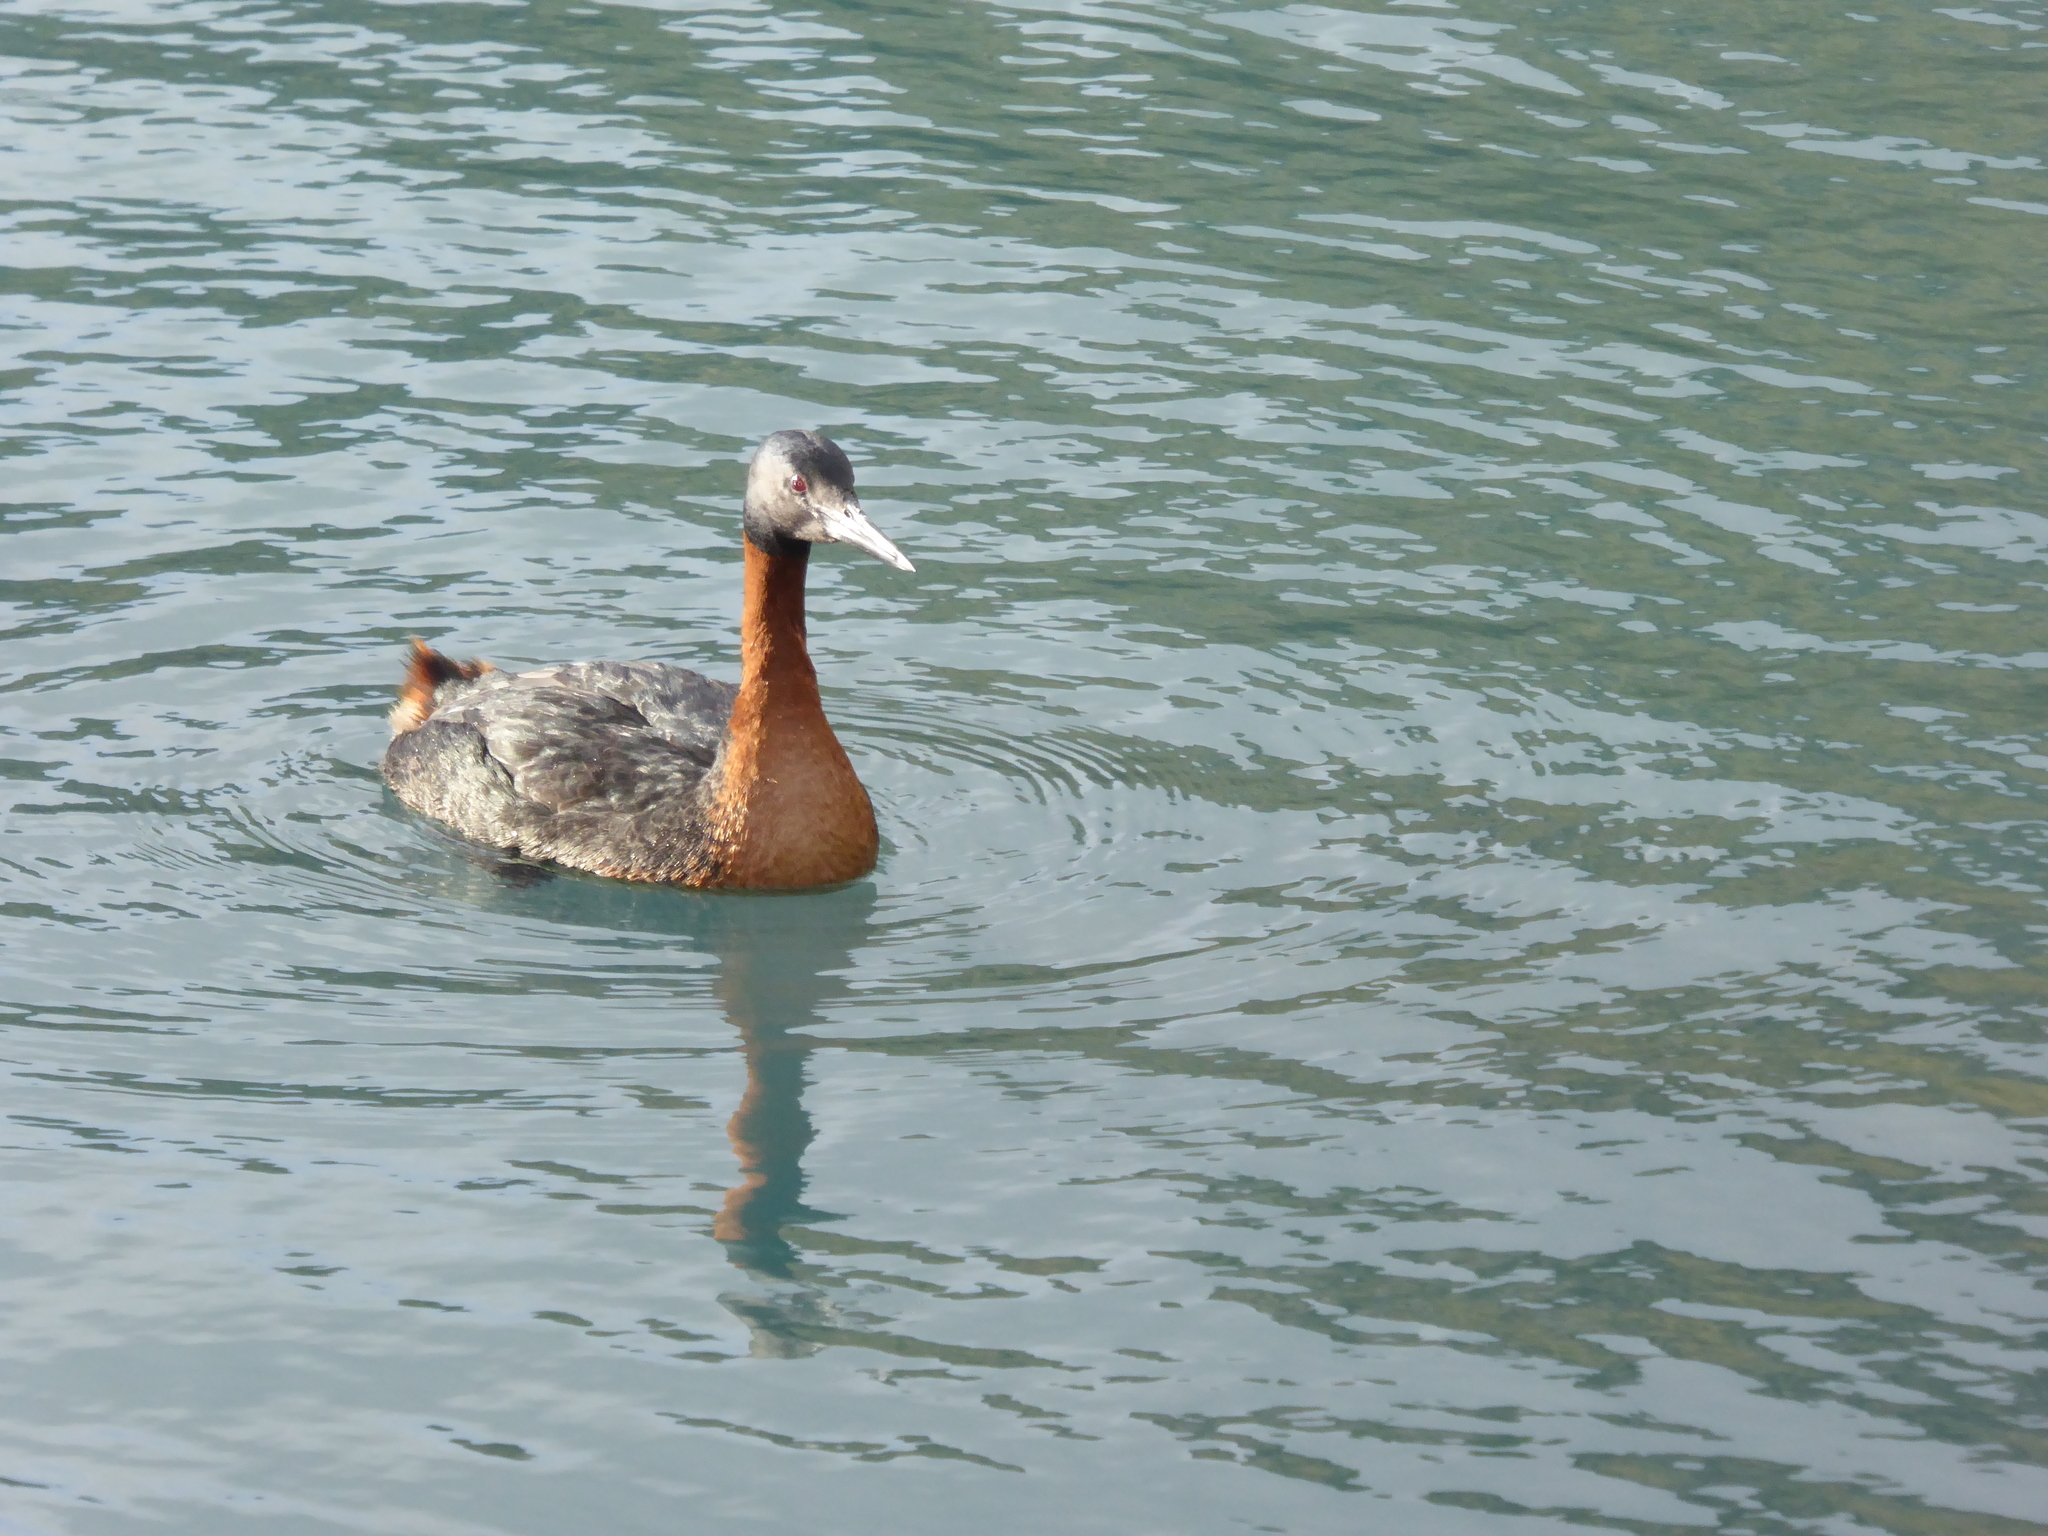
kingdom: Animalia
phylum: Chordata
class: Aves
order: Podicipediformes
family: Podicipedidae
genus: Podiceps
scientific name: Podiceps major
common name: Great grebe
